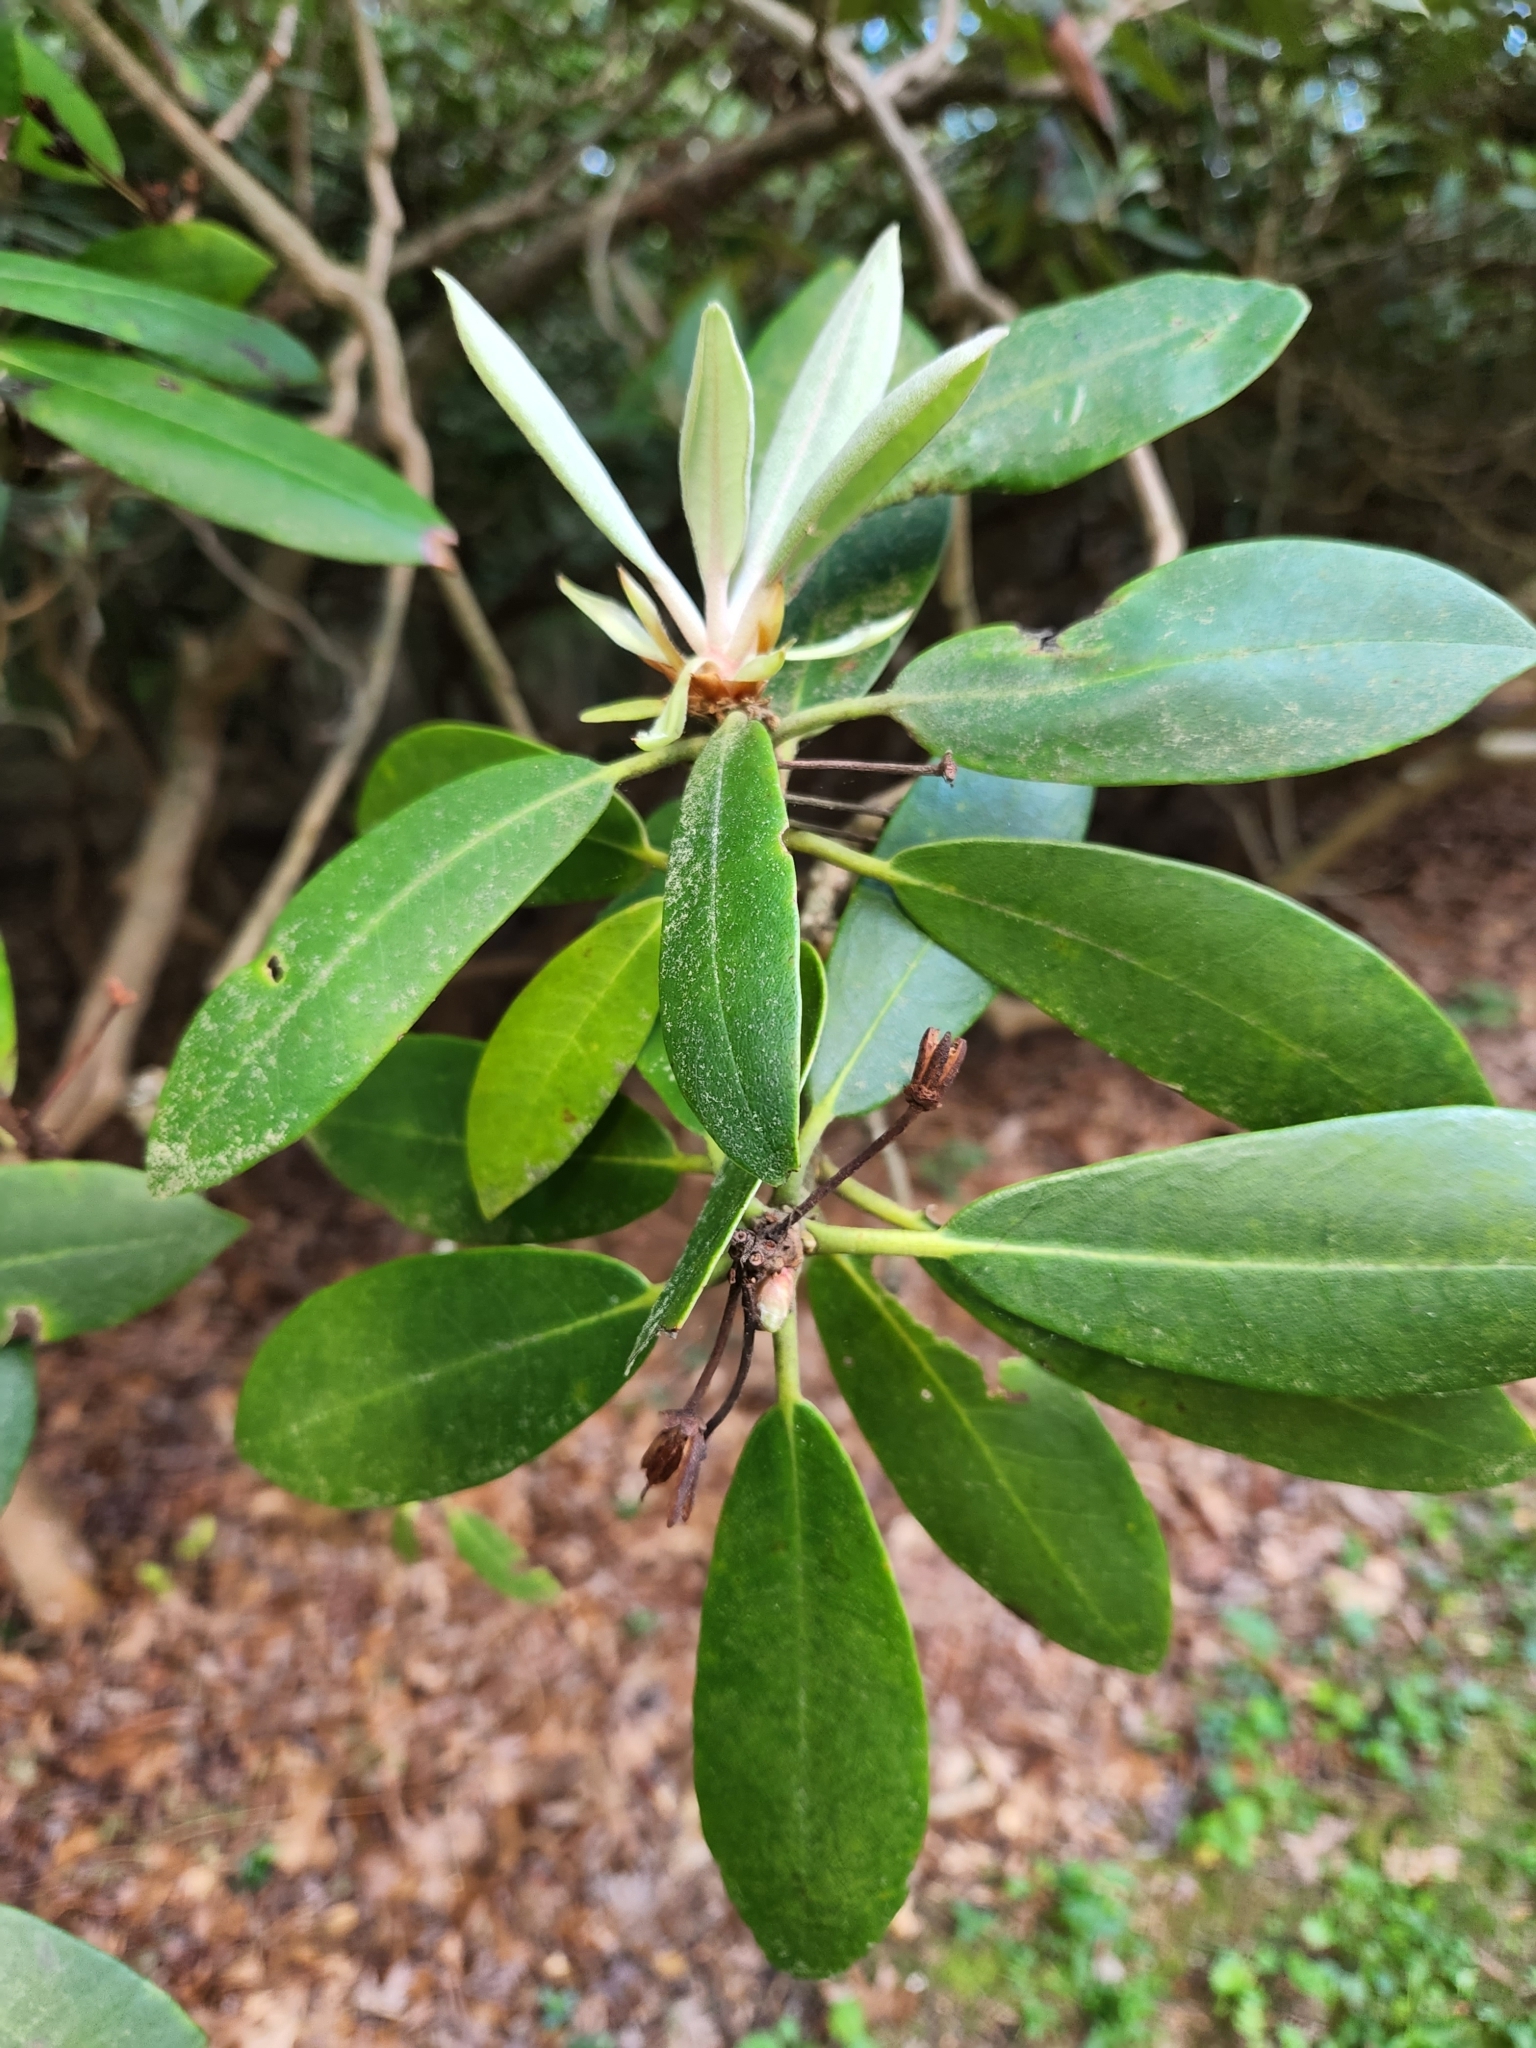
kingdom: Plantae
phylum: Tracheophyta
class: Magnoliopsida
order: Ericales
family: Ericaceae
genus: Rhododendron
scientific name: Rhododendron maximum
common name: Great rhododendron
